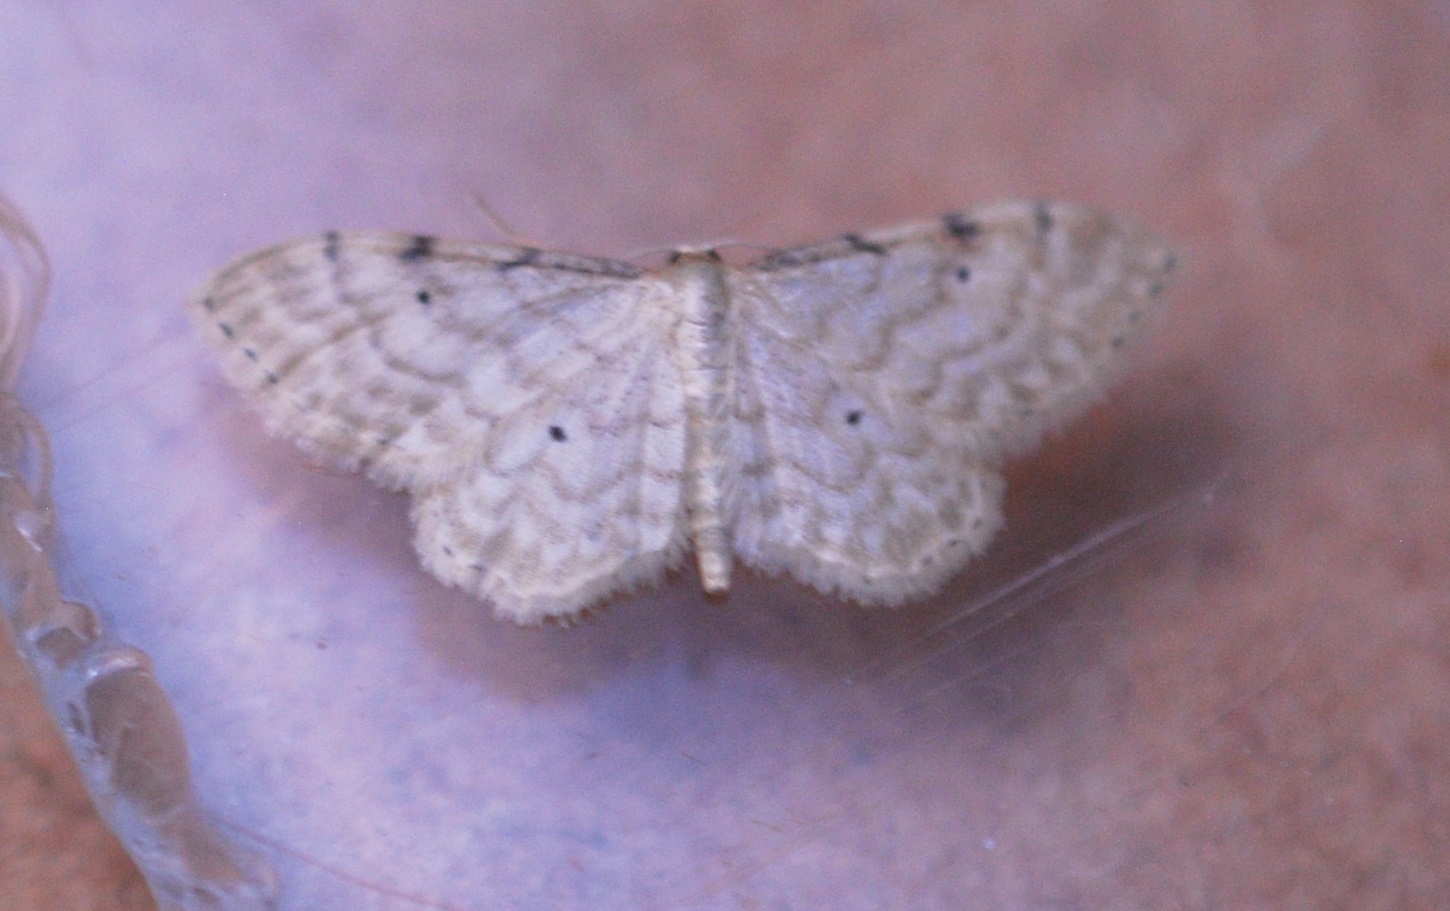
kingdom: Animalia
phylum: Arthropoda
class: Insecta
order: Lepidoptera
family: Geometridae
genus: Idaea
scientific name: Idaea fuscovenosa
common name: Dwarf cream wave
